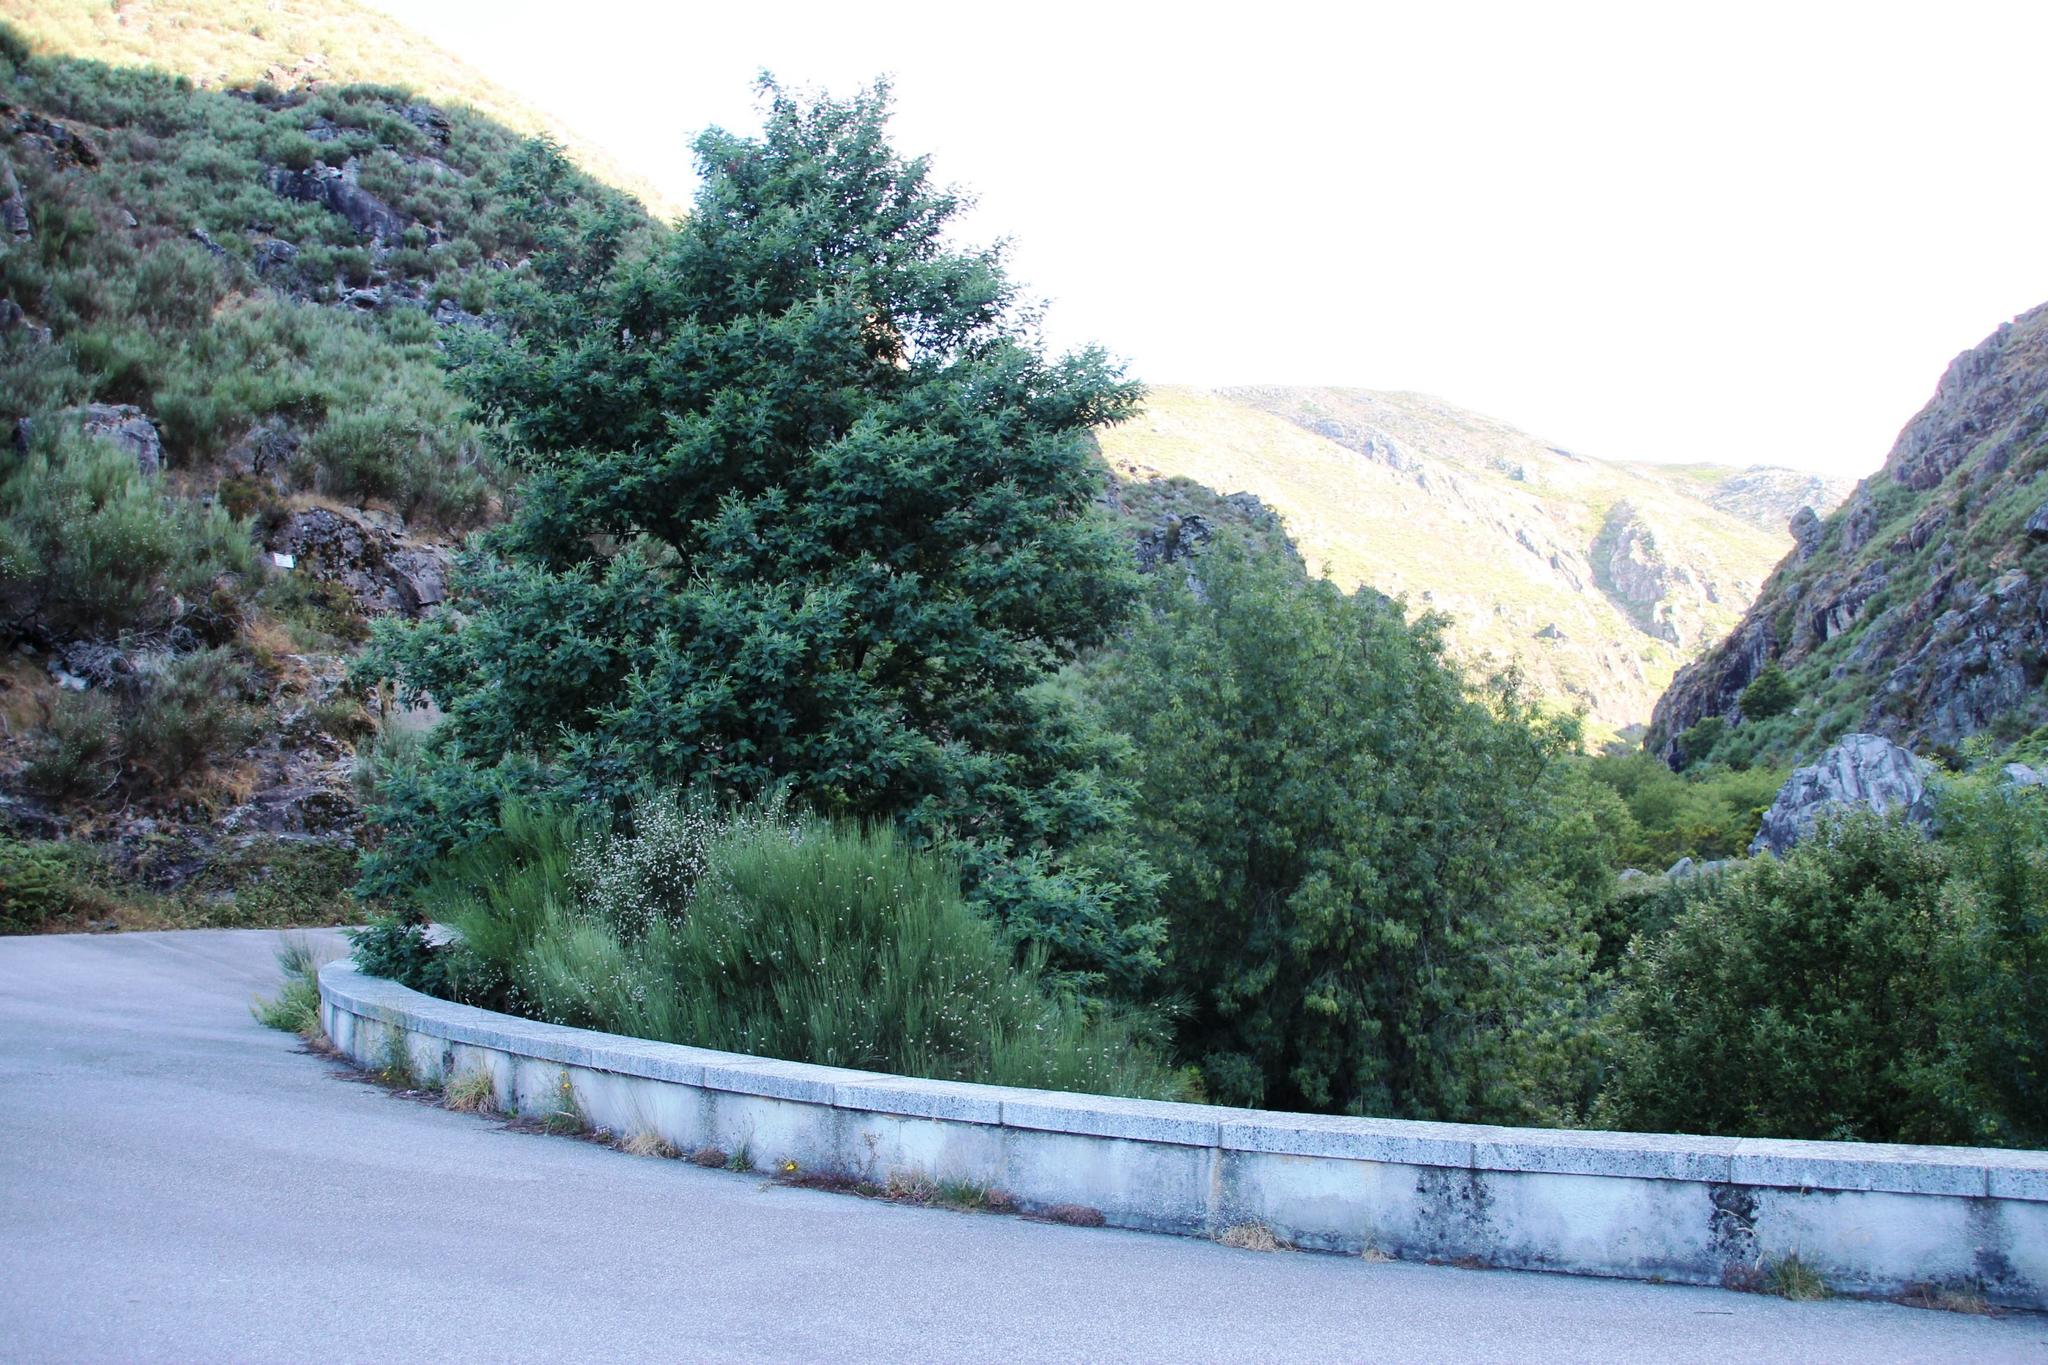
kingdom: Plantae
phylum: Tracheophyta
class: Magnoliopsida
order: Fabales
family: Fabaceae
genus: Acacia
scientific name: Acacia dealbata
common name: Silver wattle
